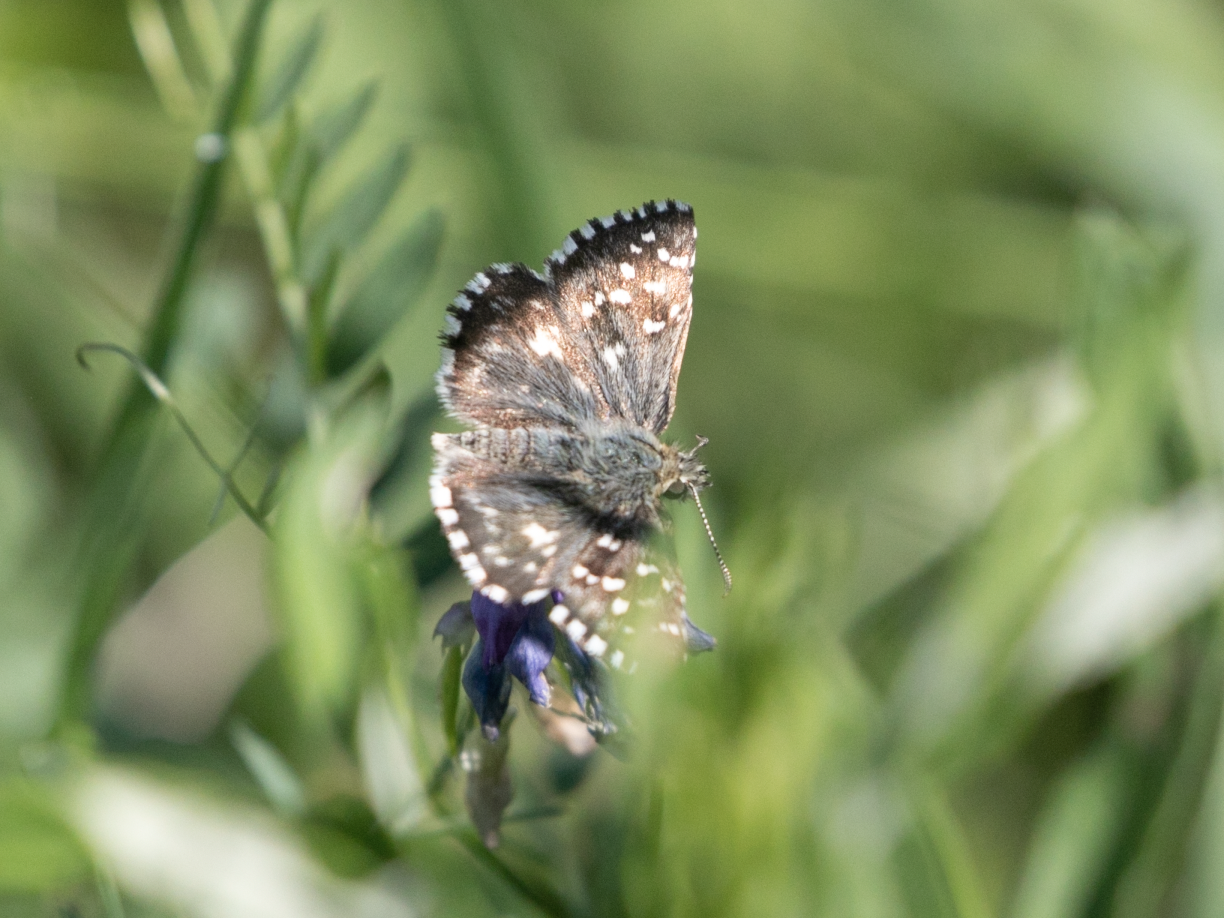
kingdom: Animalia
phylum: Arthropoda
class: Insecta
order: Lepidoptera
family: Hesperiidae
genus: Pyrgus
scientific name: Pyrgus malvoides
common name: Southern grizzled skipper
